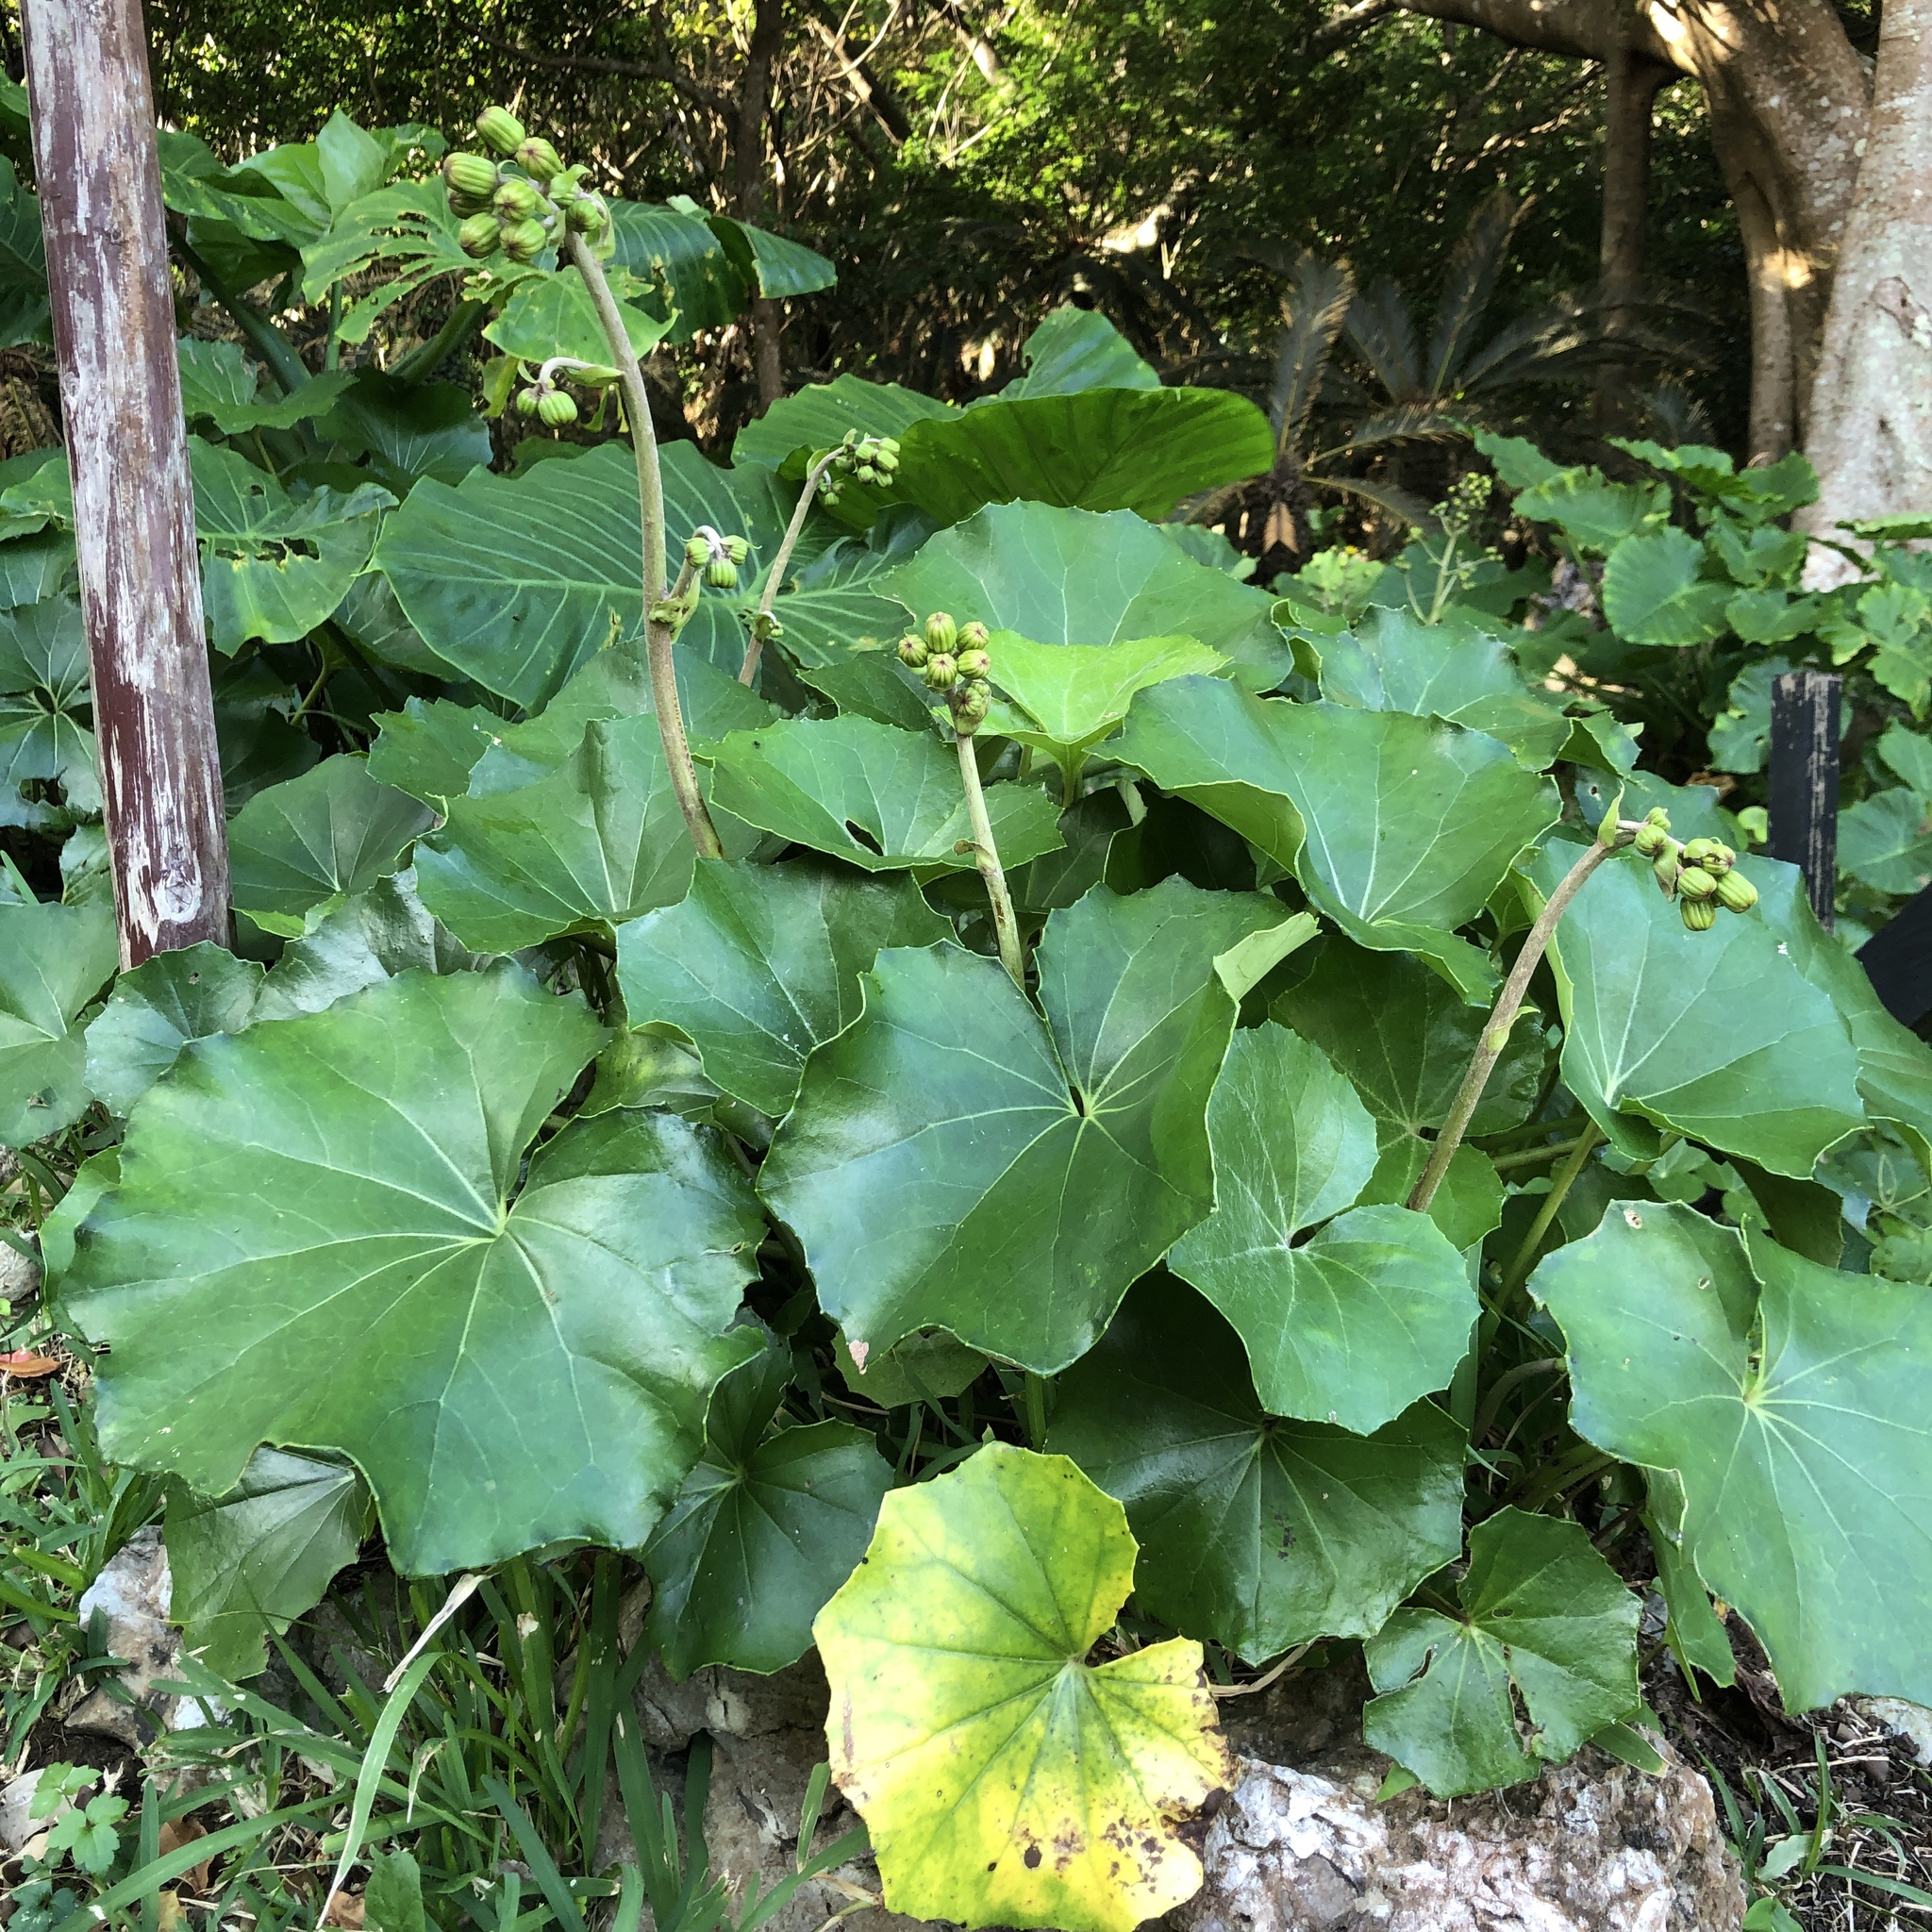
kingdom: Plantae
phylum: Tracheophyta
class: Magnoliopsida
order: Asterales
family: Asteraceae
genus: Farfugium
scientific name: Farfugium japonicum
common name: Leopardplant
